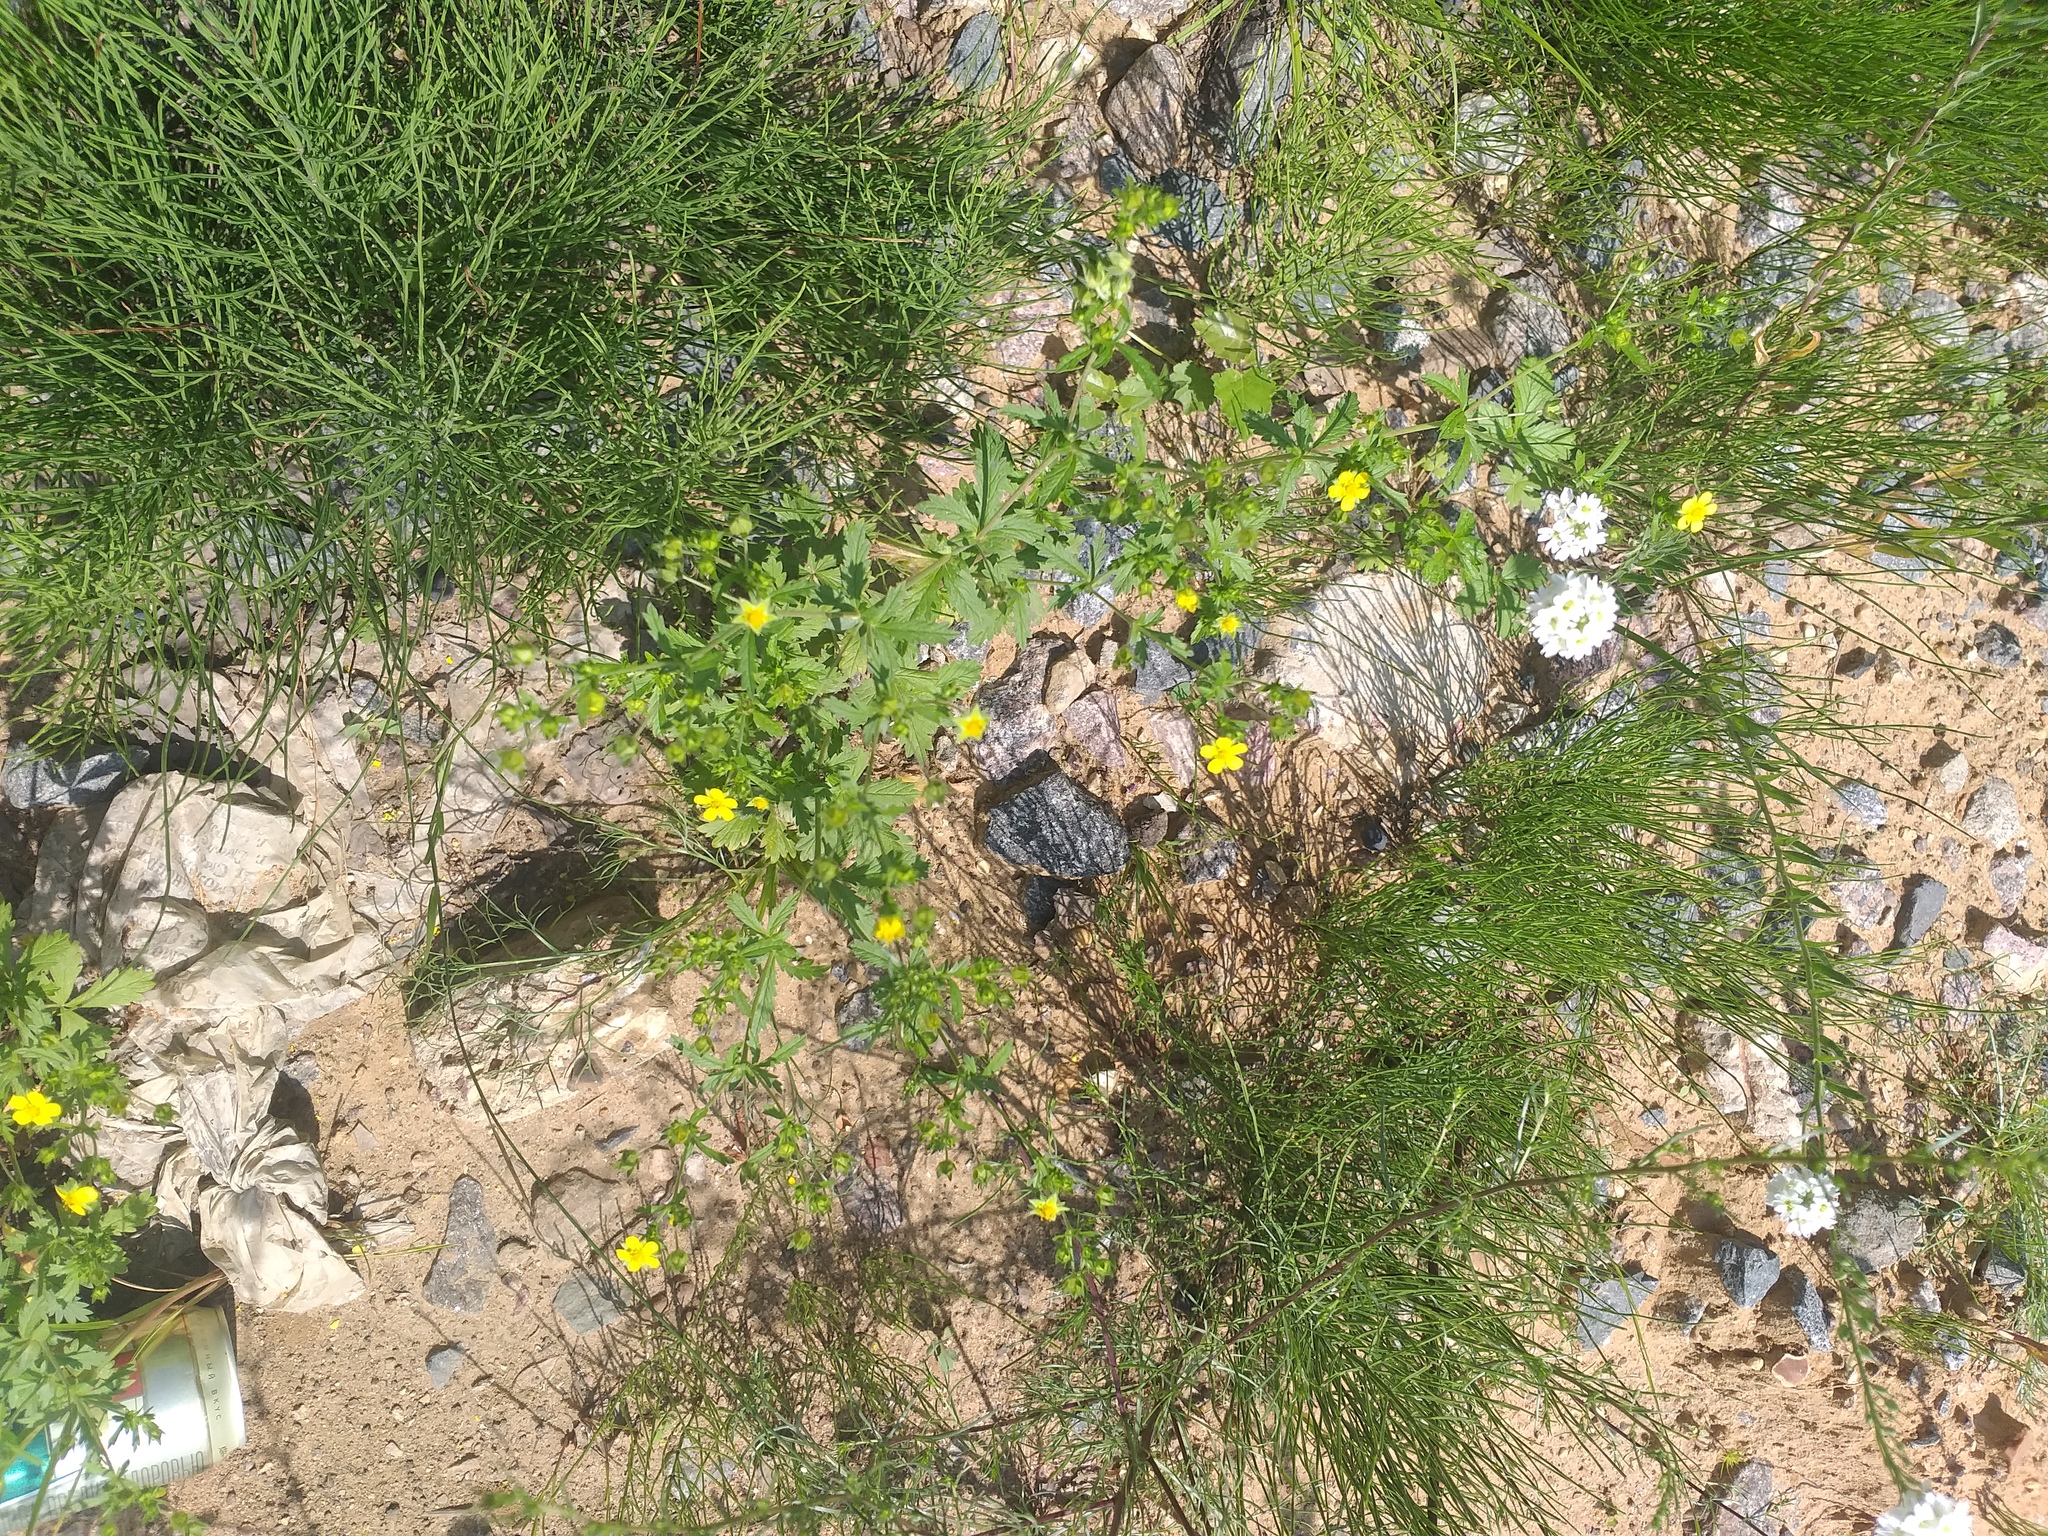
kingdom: Plantae
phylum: Tracheophyta
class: Magnoliopsida
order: Rosales
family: Rosaceae
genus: Potentilla
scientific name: Potentilla intermedia
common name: Downy cinquefoil
